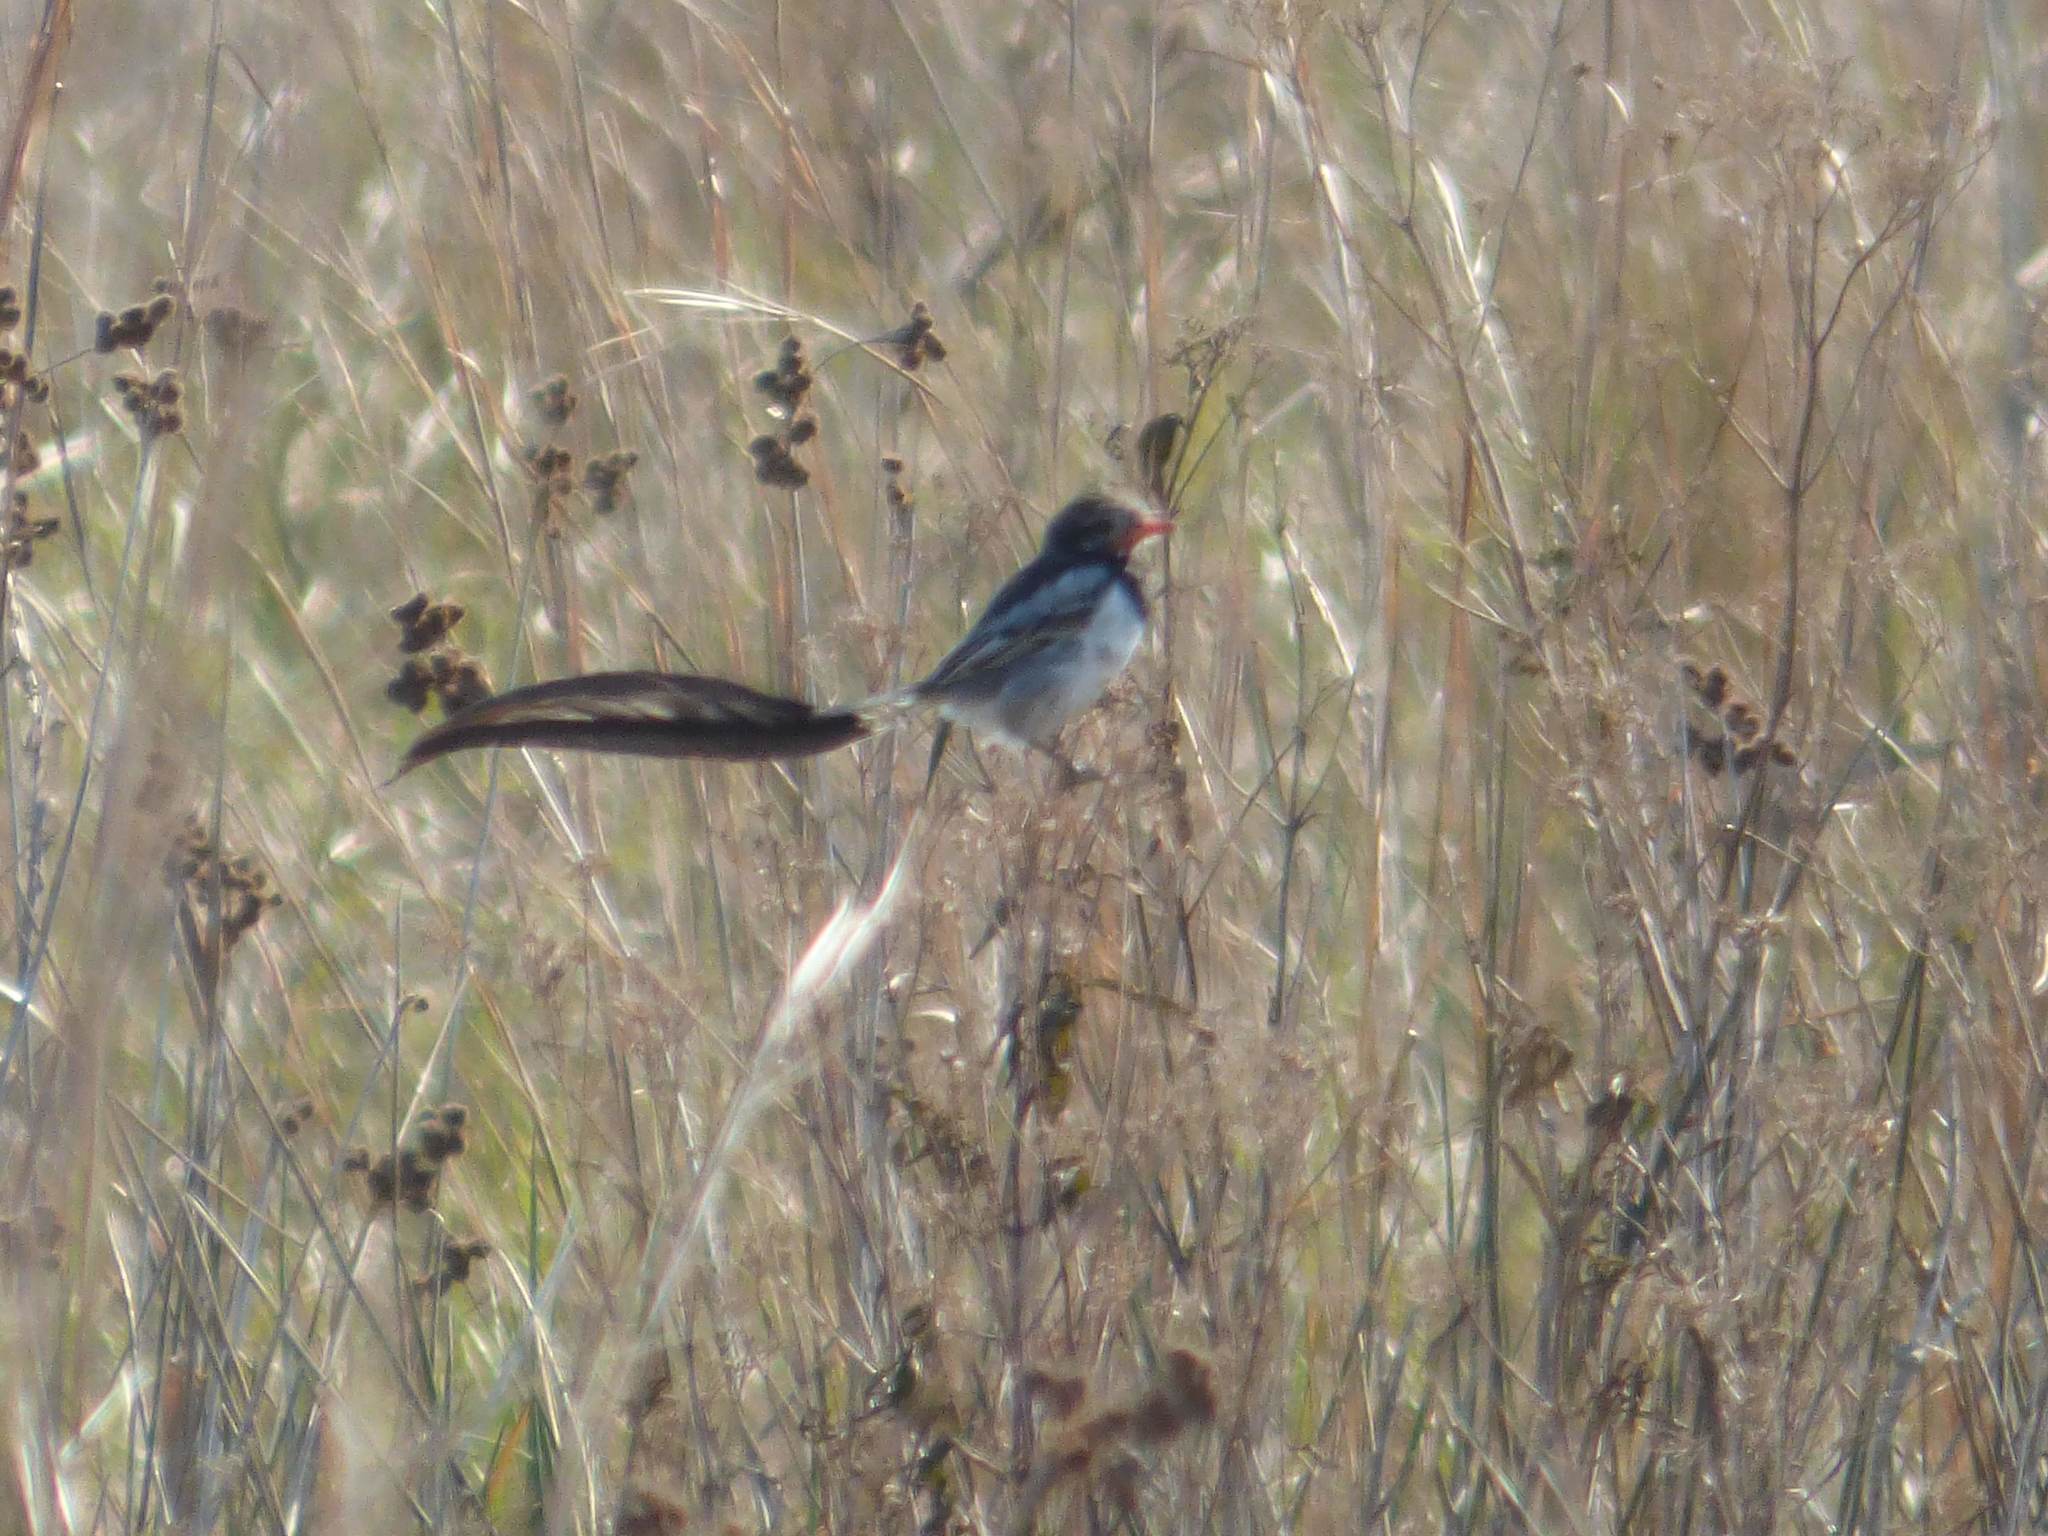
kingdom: Animalia
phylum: Chordata
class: Aves
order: Passeriformes
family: Tyrannidae
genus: Alectrurus
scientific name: Alectrurus risora
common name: Strange-tailed tyrant
